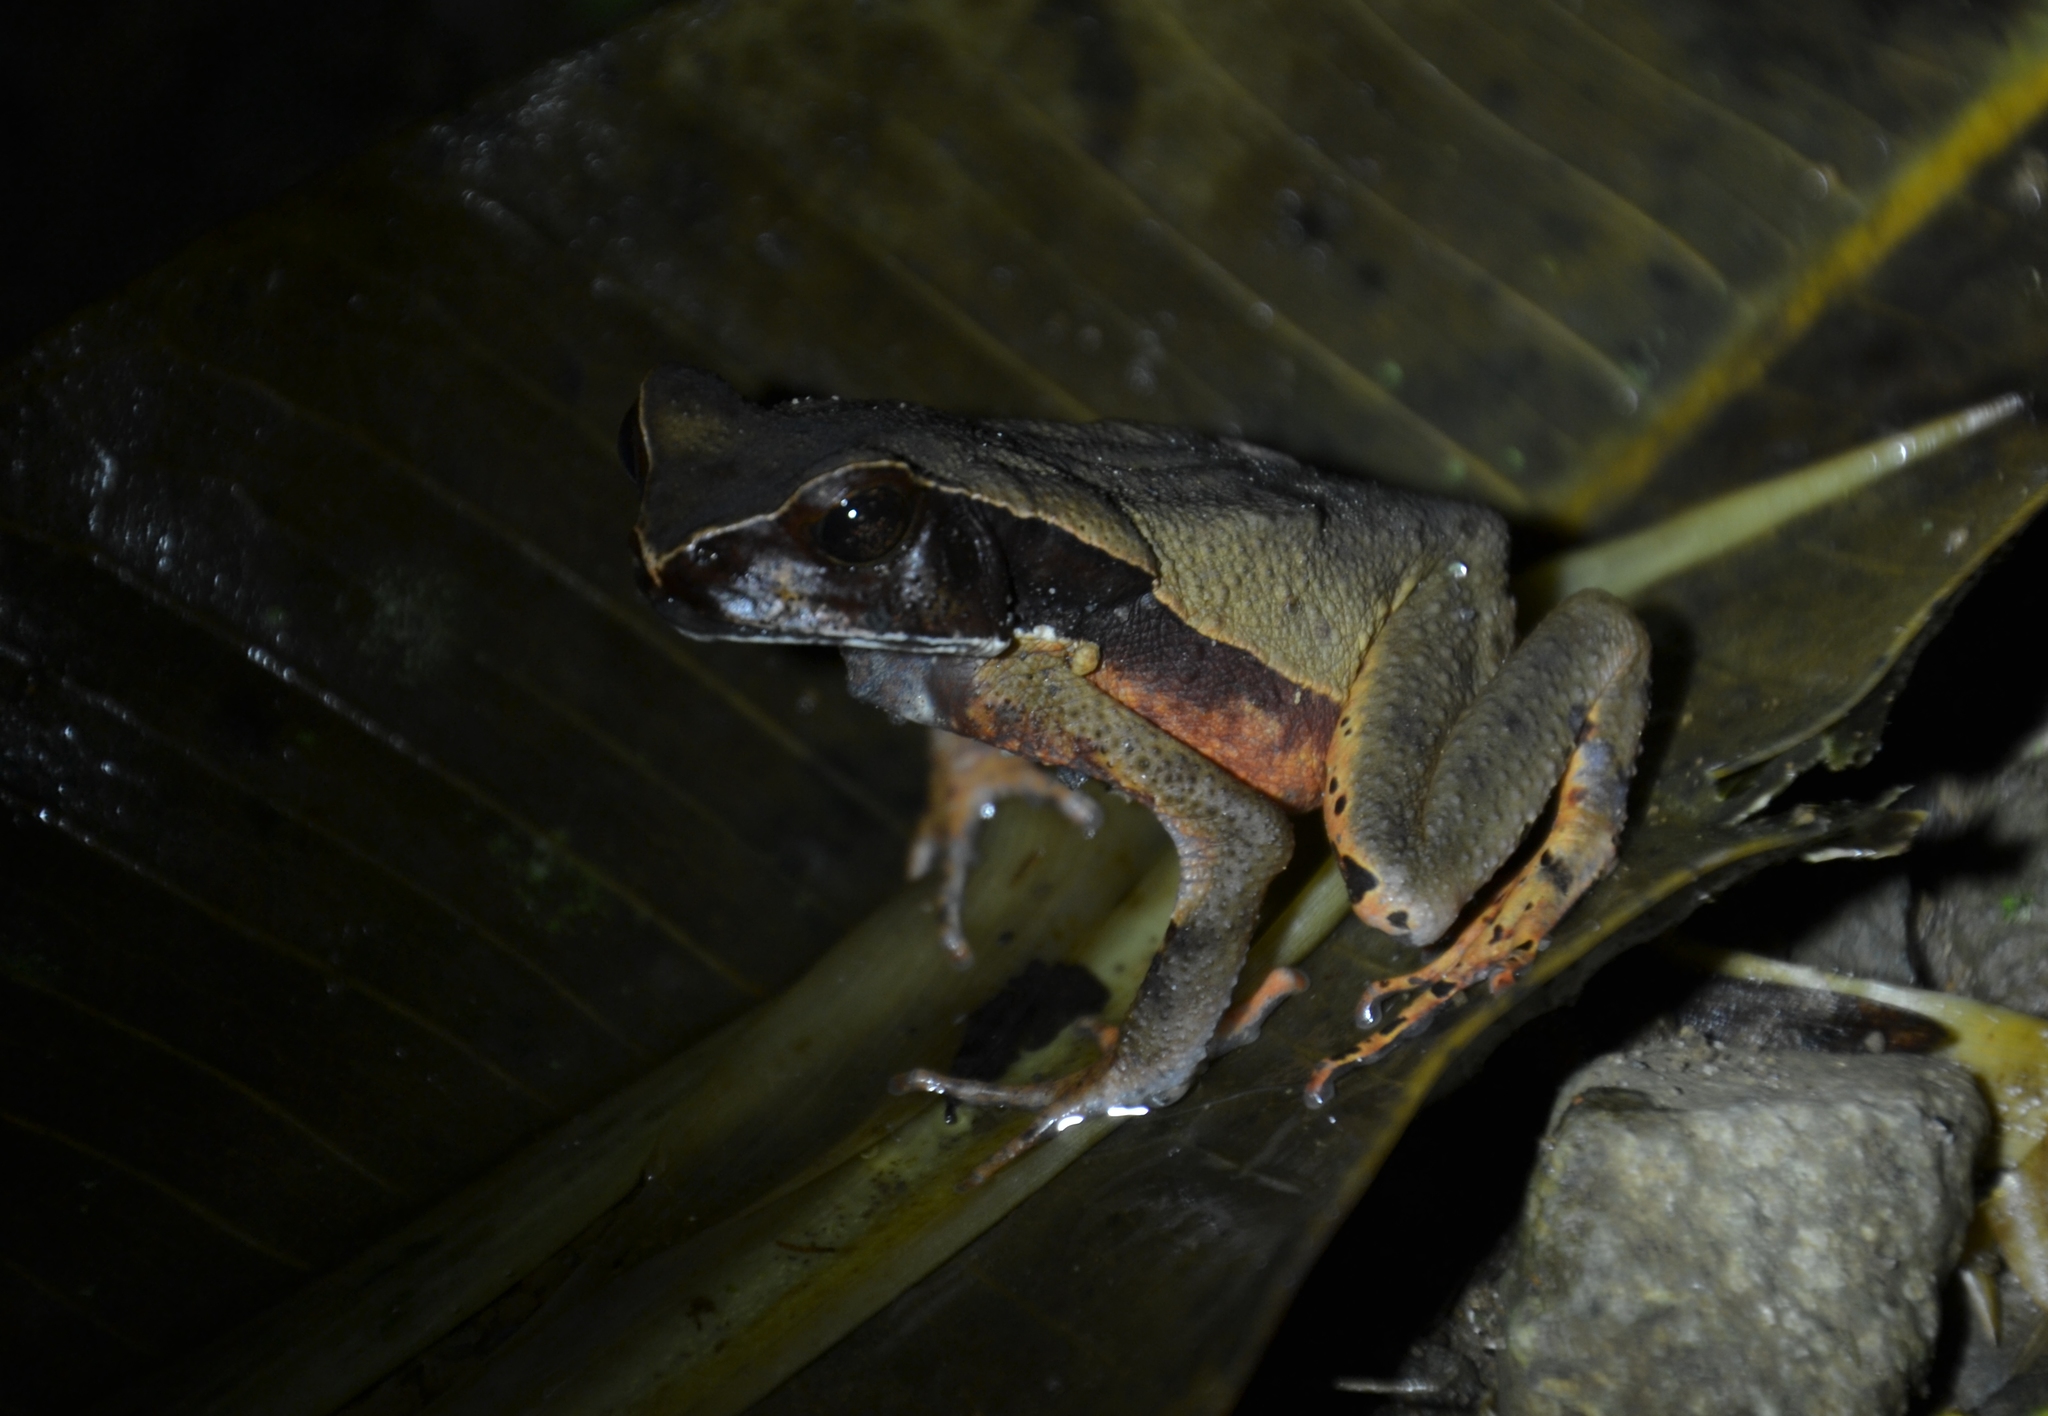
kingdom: Animalia
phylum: Chordata
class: Amphibia
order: Anura
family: Bufonidae
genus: Rhaebo
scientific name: Rhaebo haematiticus
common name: Truando toad
